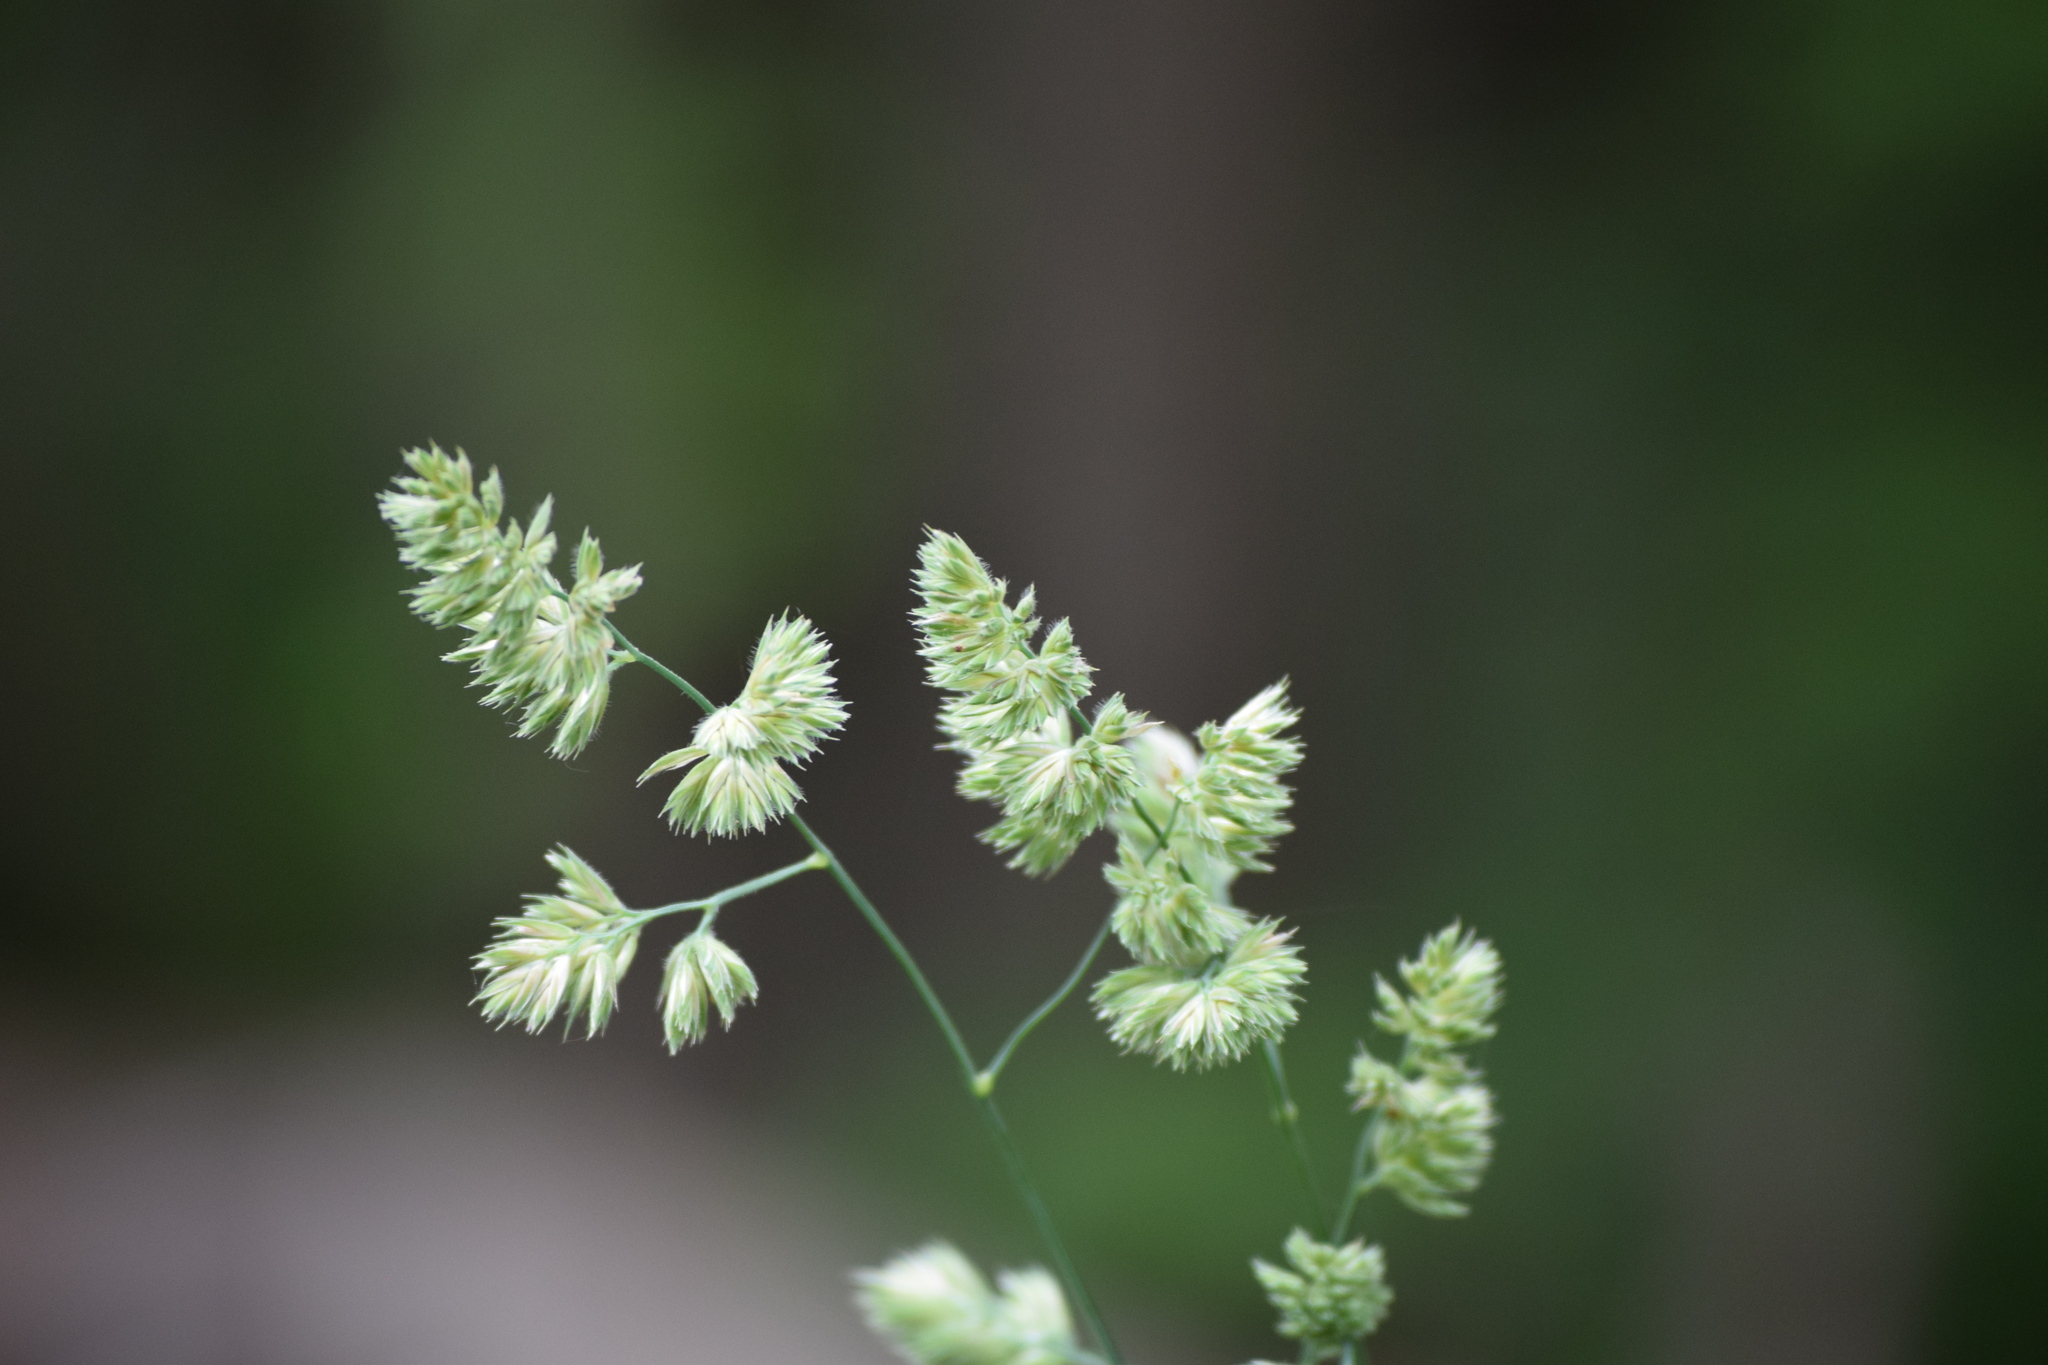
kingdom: Plantae
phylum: Tracheophyta
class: Liliopsida
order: Poales
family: Poaceae
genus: Dactylis
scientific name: Dactylis glomerata
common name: Orchardgrass
